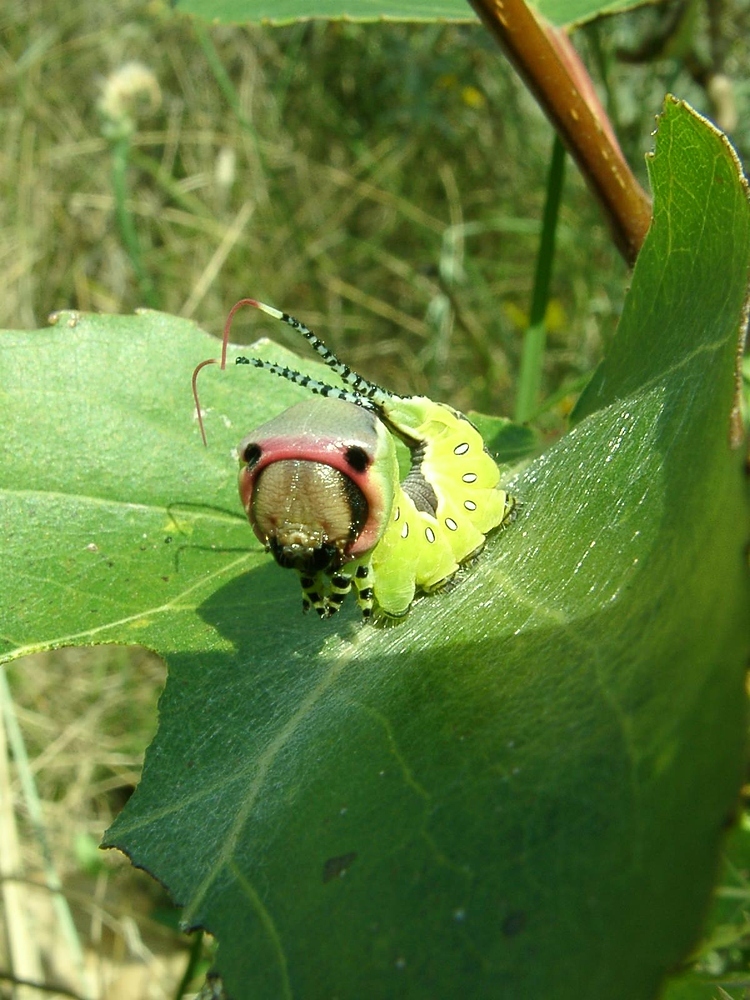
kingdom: Animalia
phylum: Arthropoda
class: Insecta
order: Lepidoptera
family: Notodontidae
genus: Cerura
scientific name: Cerura vinula
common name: Puss moth
